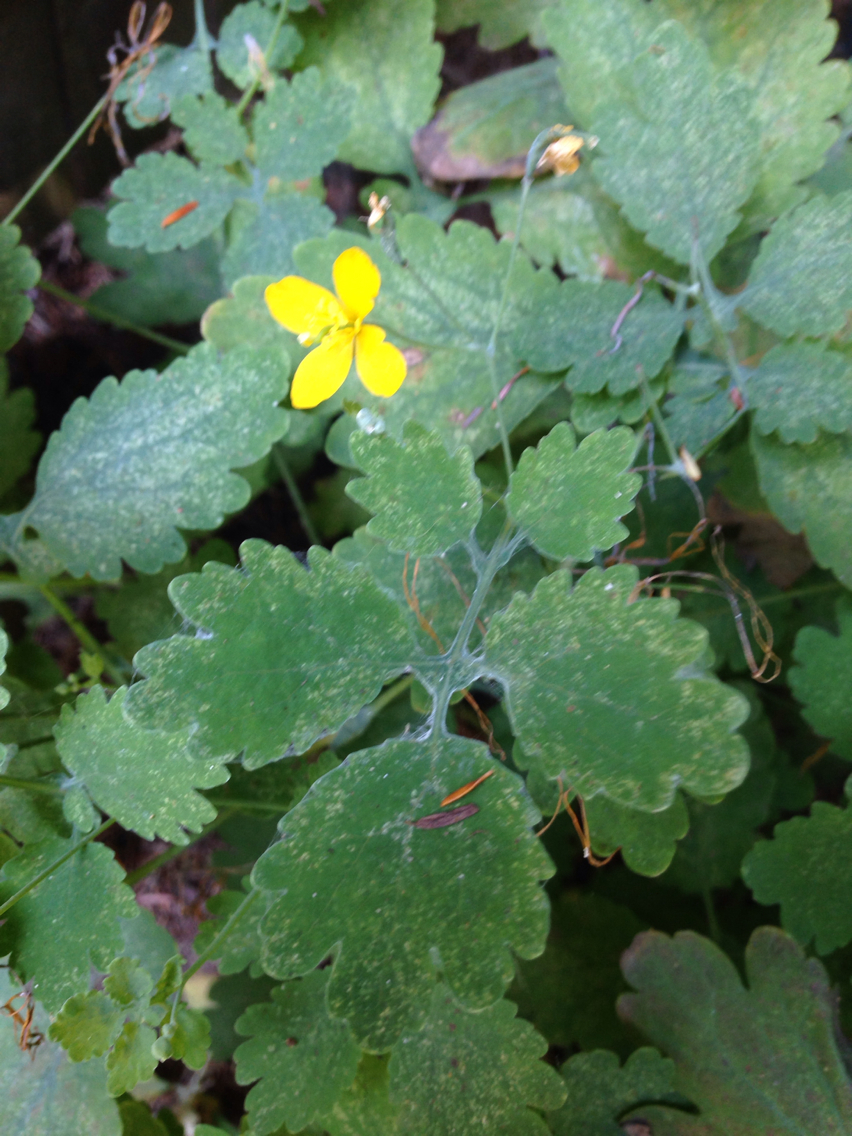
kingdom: Plantae
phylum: Tracheophyta
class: Magnoliopsida
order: Ranunculales
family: Papaveraceae
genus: Chelidonium
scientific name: Chelidonium majus
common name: Greater celandine
